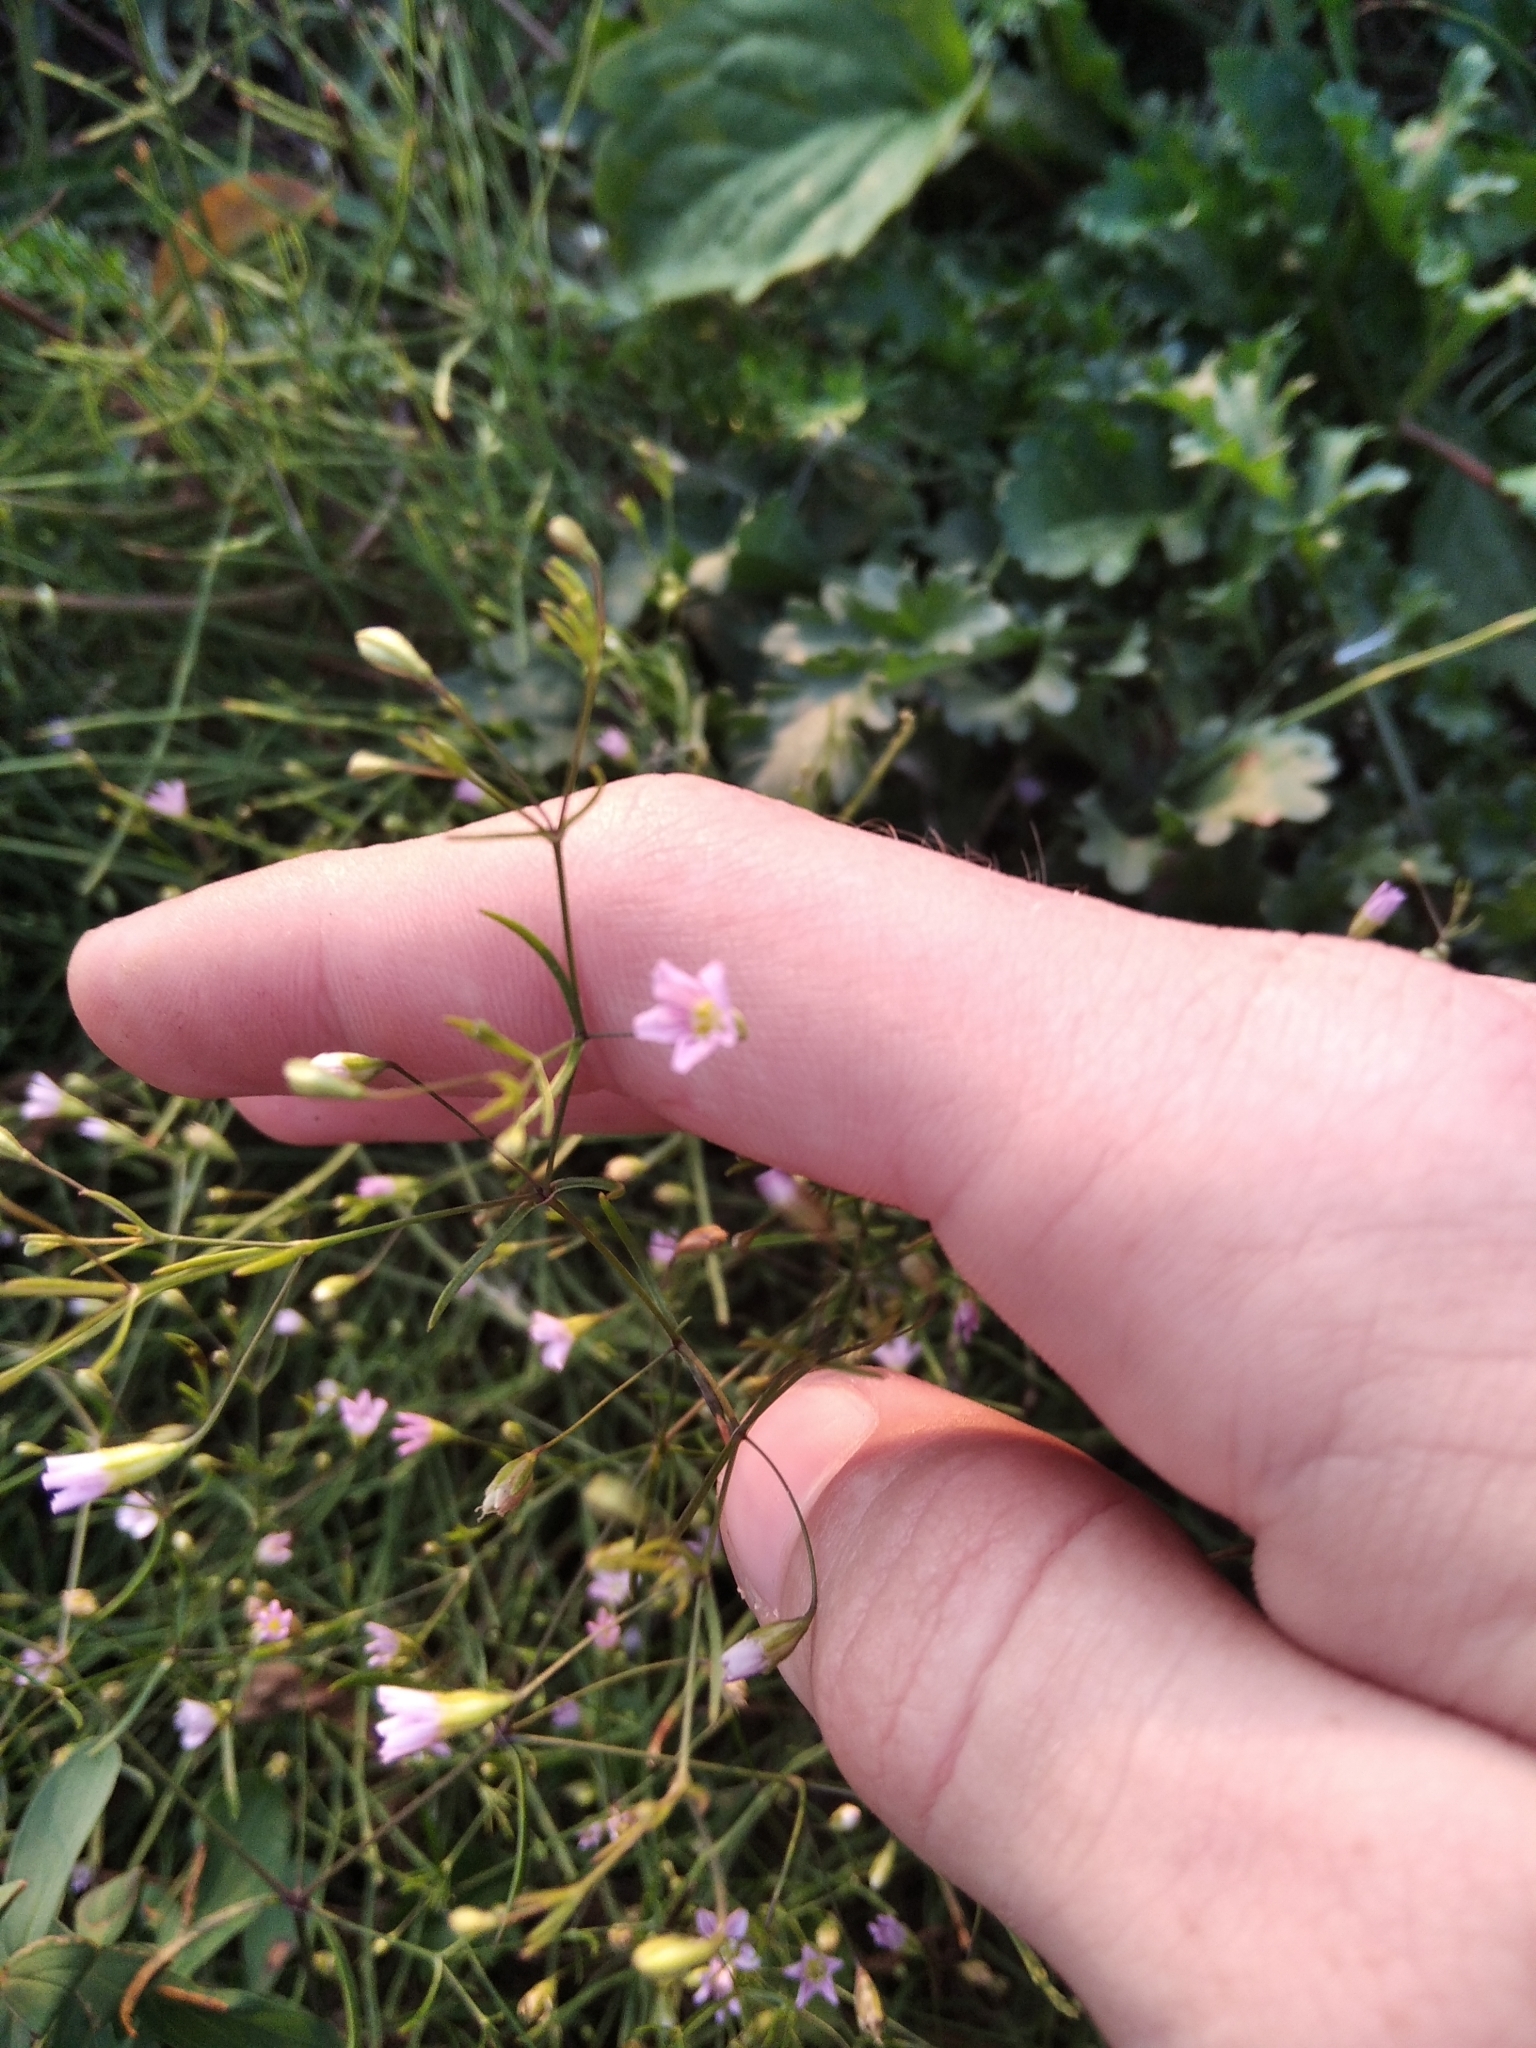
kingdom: Plantae
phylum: Tracheophyta
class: Magnoliopsida
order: Caryophyllales
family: Caryophyllaceae
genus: Psammophiliella
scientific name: Psammophiliella muralis
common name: Cushion baby's-breath
